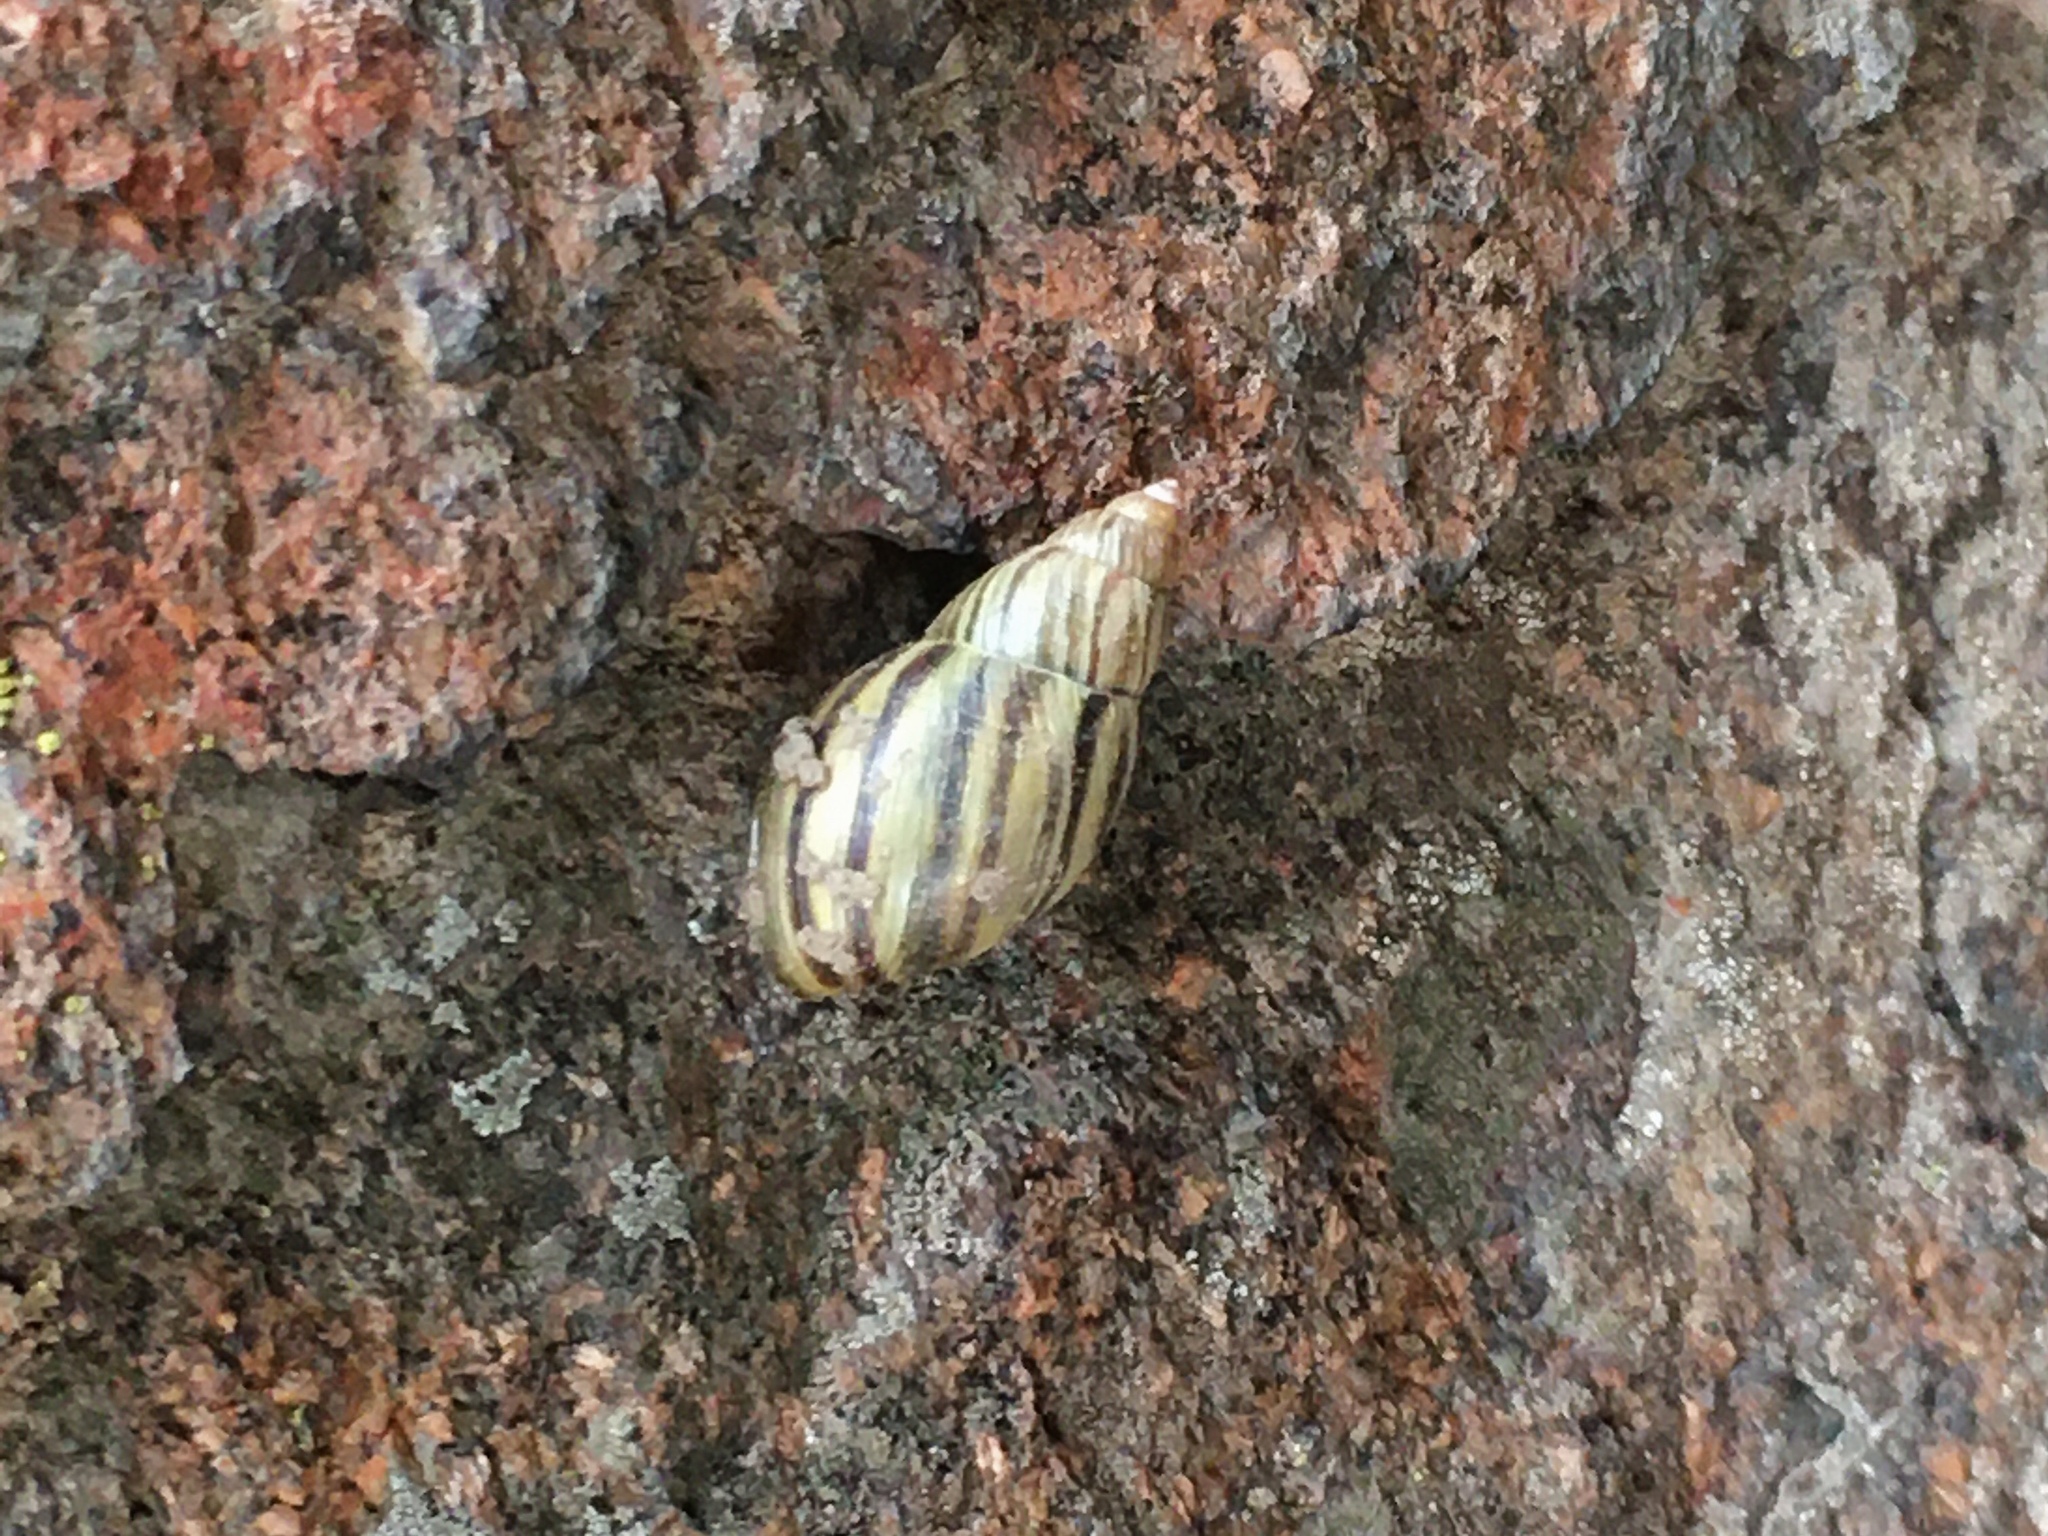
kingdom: Animalia
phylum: Mollusca
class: Gastropoda
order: Stylommatophora
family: Bothriembryontidae
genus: Discoleus
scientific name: Discoleus aguirrei
